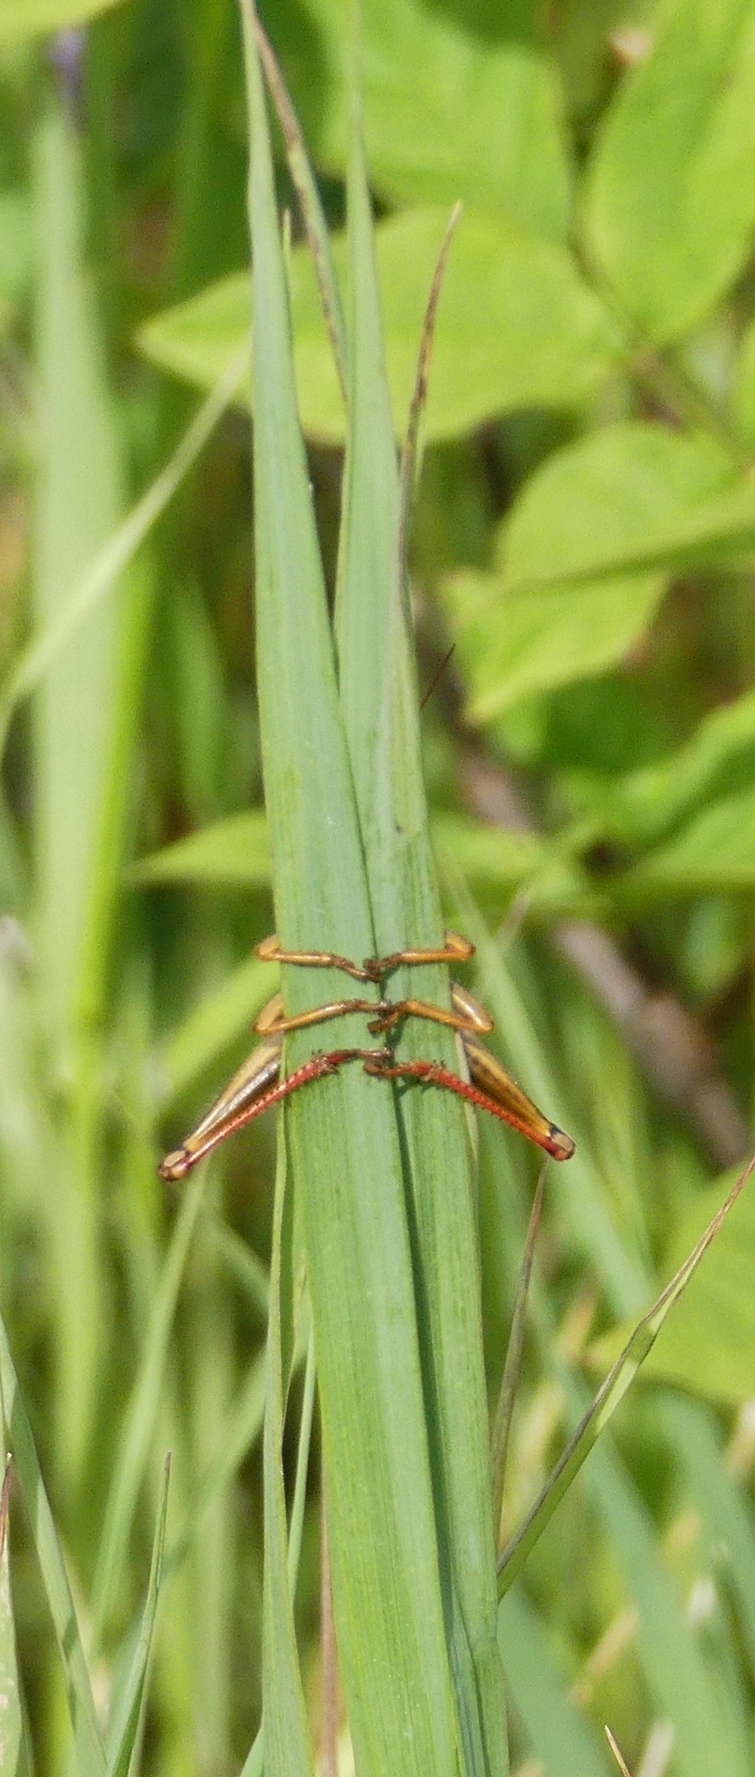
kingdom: Animalia
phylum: Arthropoda
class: Insecta
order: Orthoptera
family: Acrididae
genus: Melanoplus
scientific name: Melanoplus bivittatus
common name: Two-striped grasshopper
